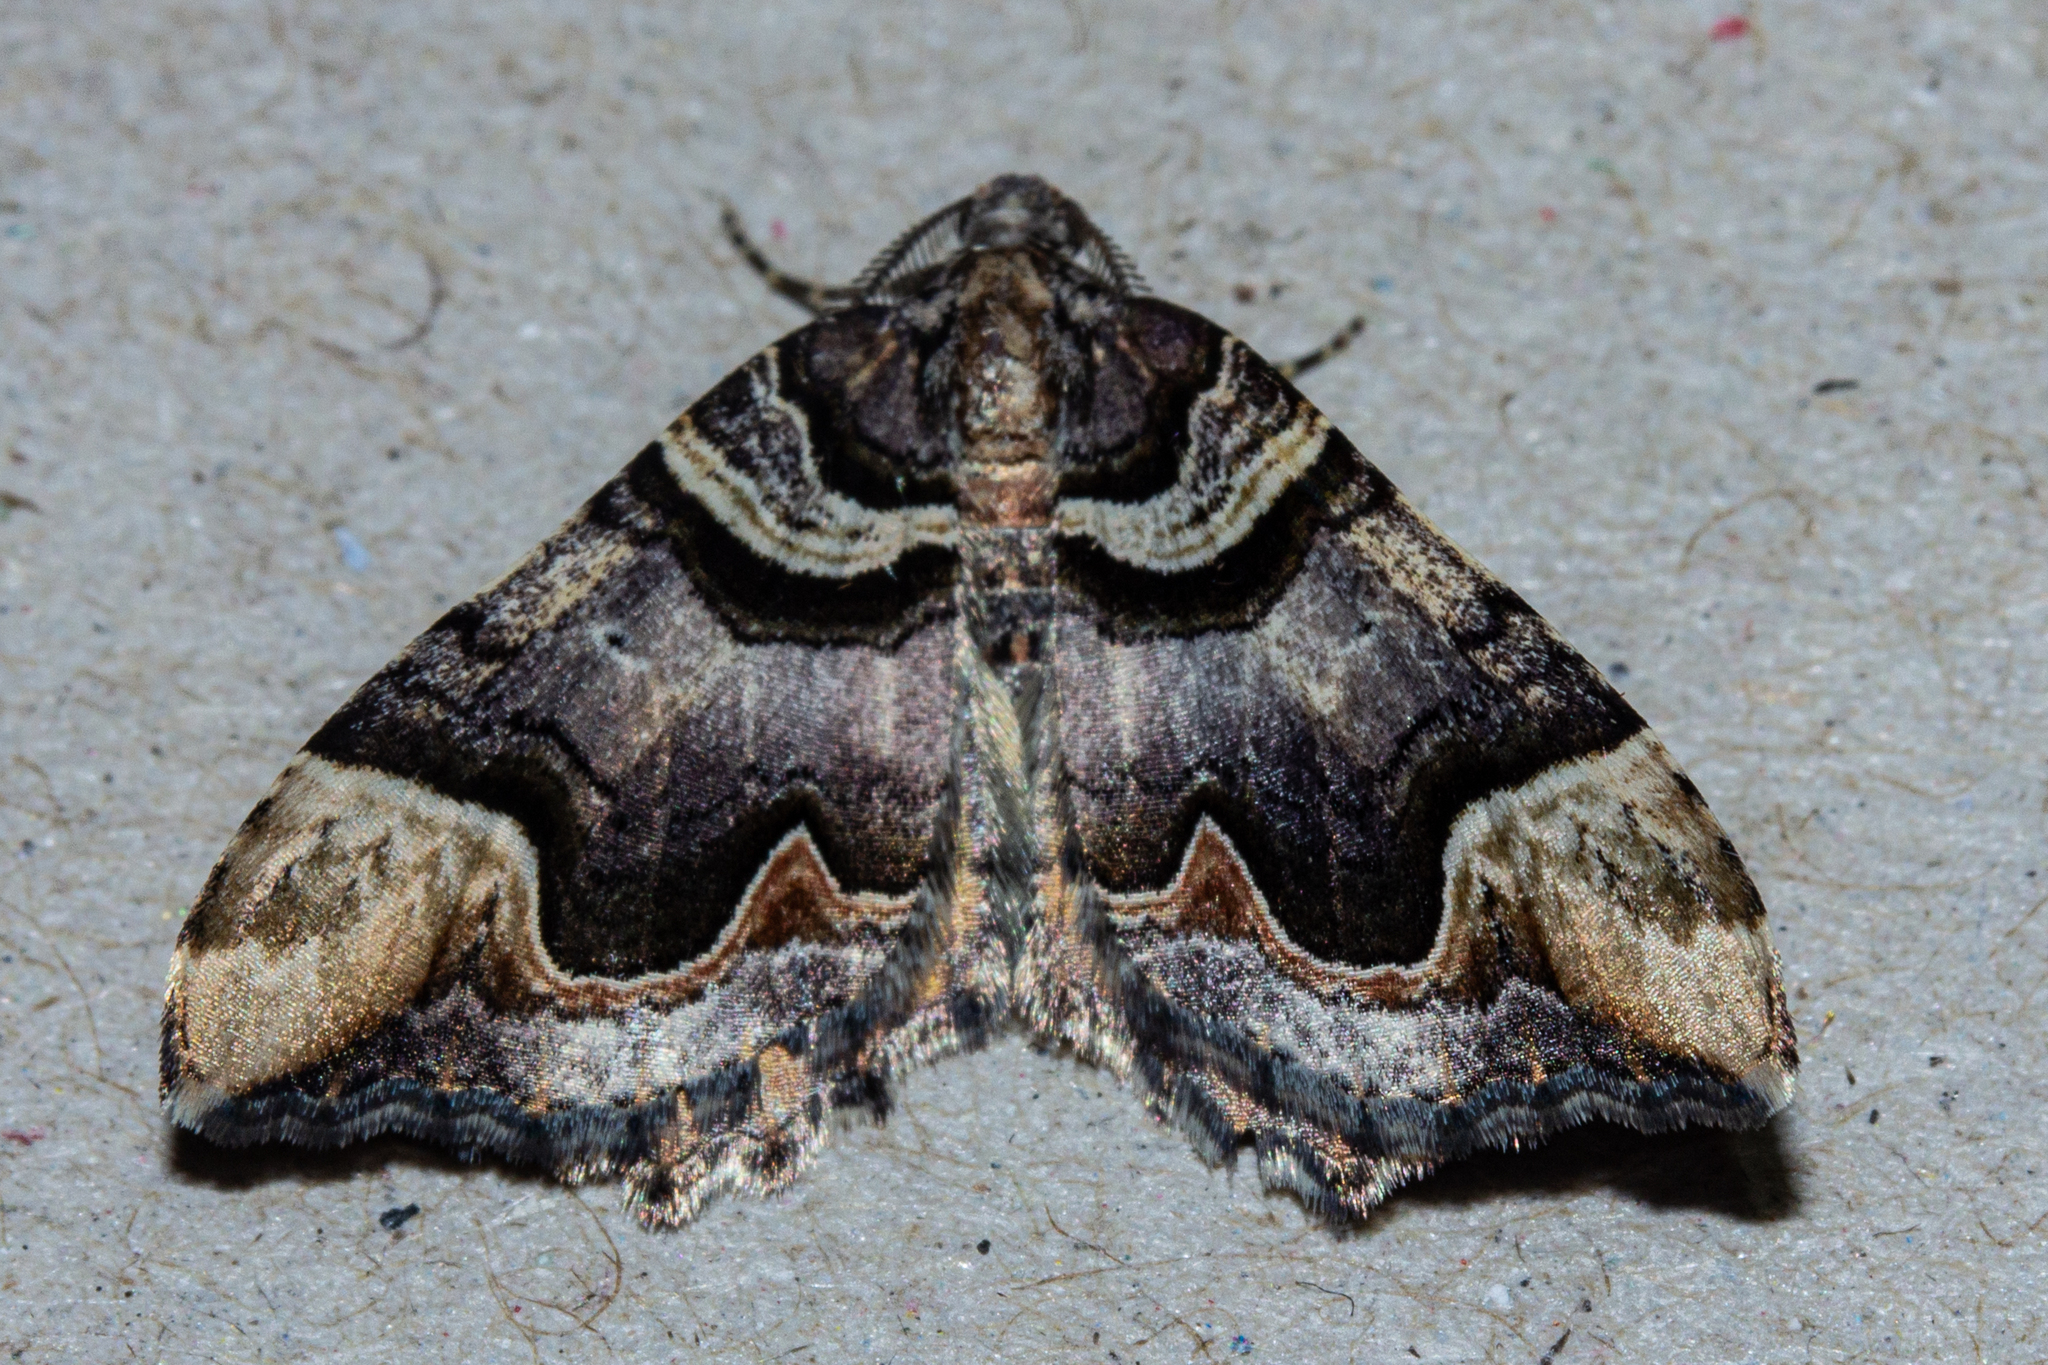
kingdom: Animalia
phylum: Arthropoda
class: Insecta
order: Lepidoptera
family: Geometridae
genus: Asaphodes
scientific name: Asaphodes chlamydota
